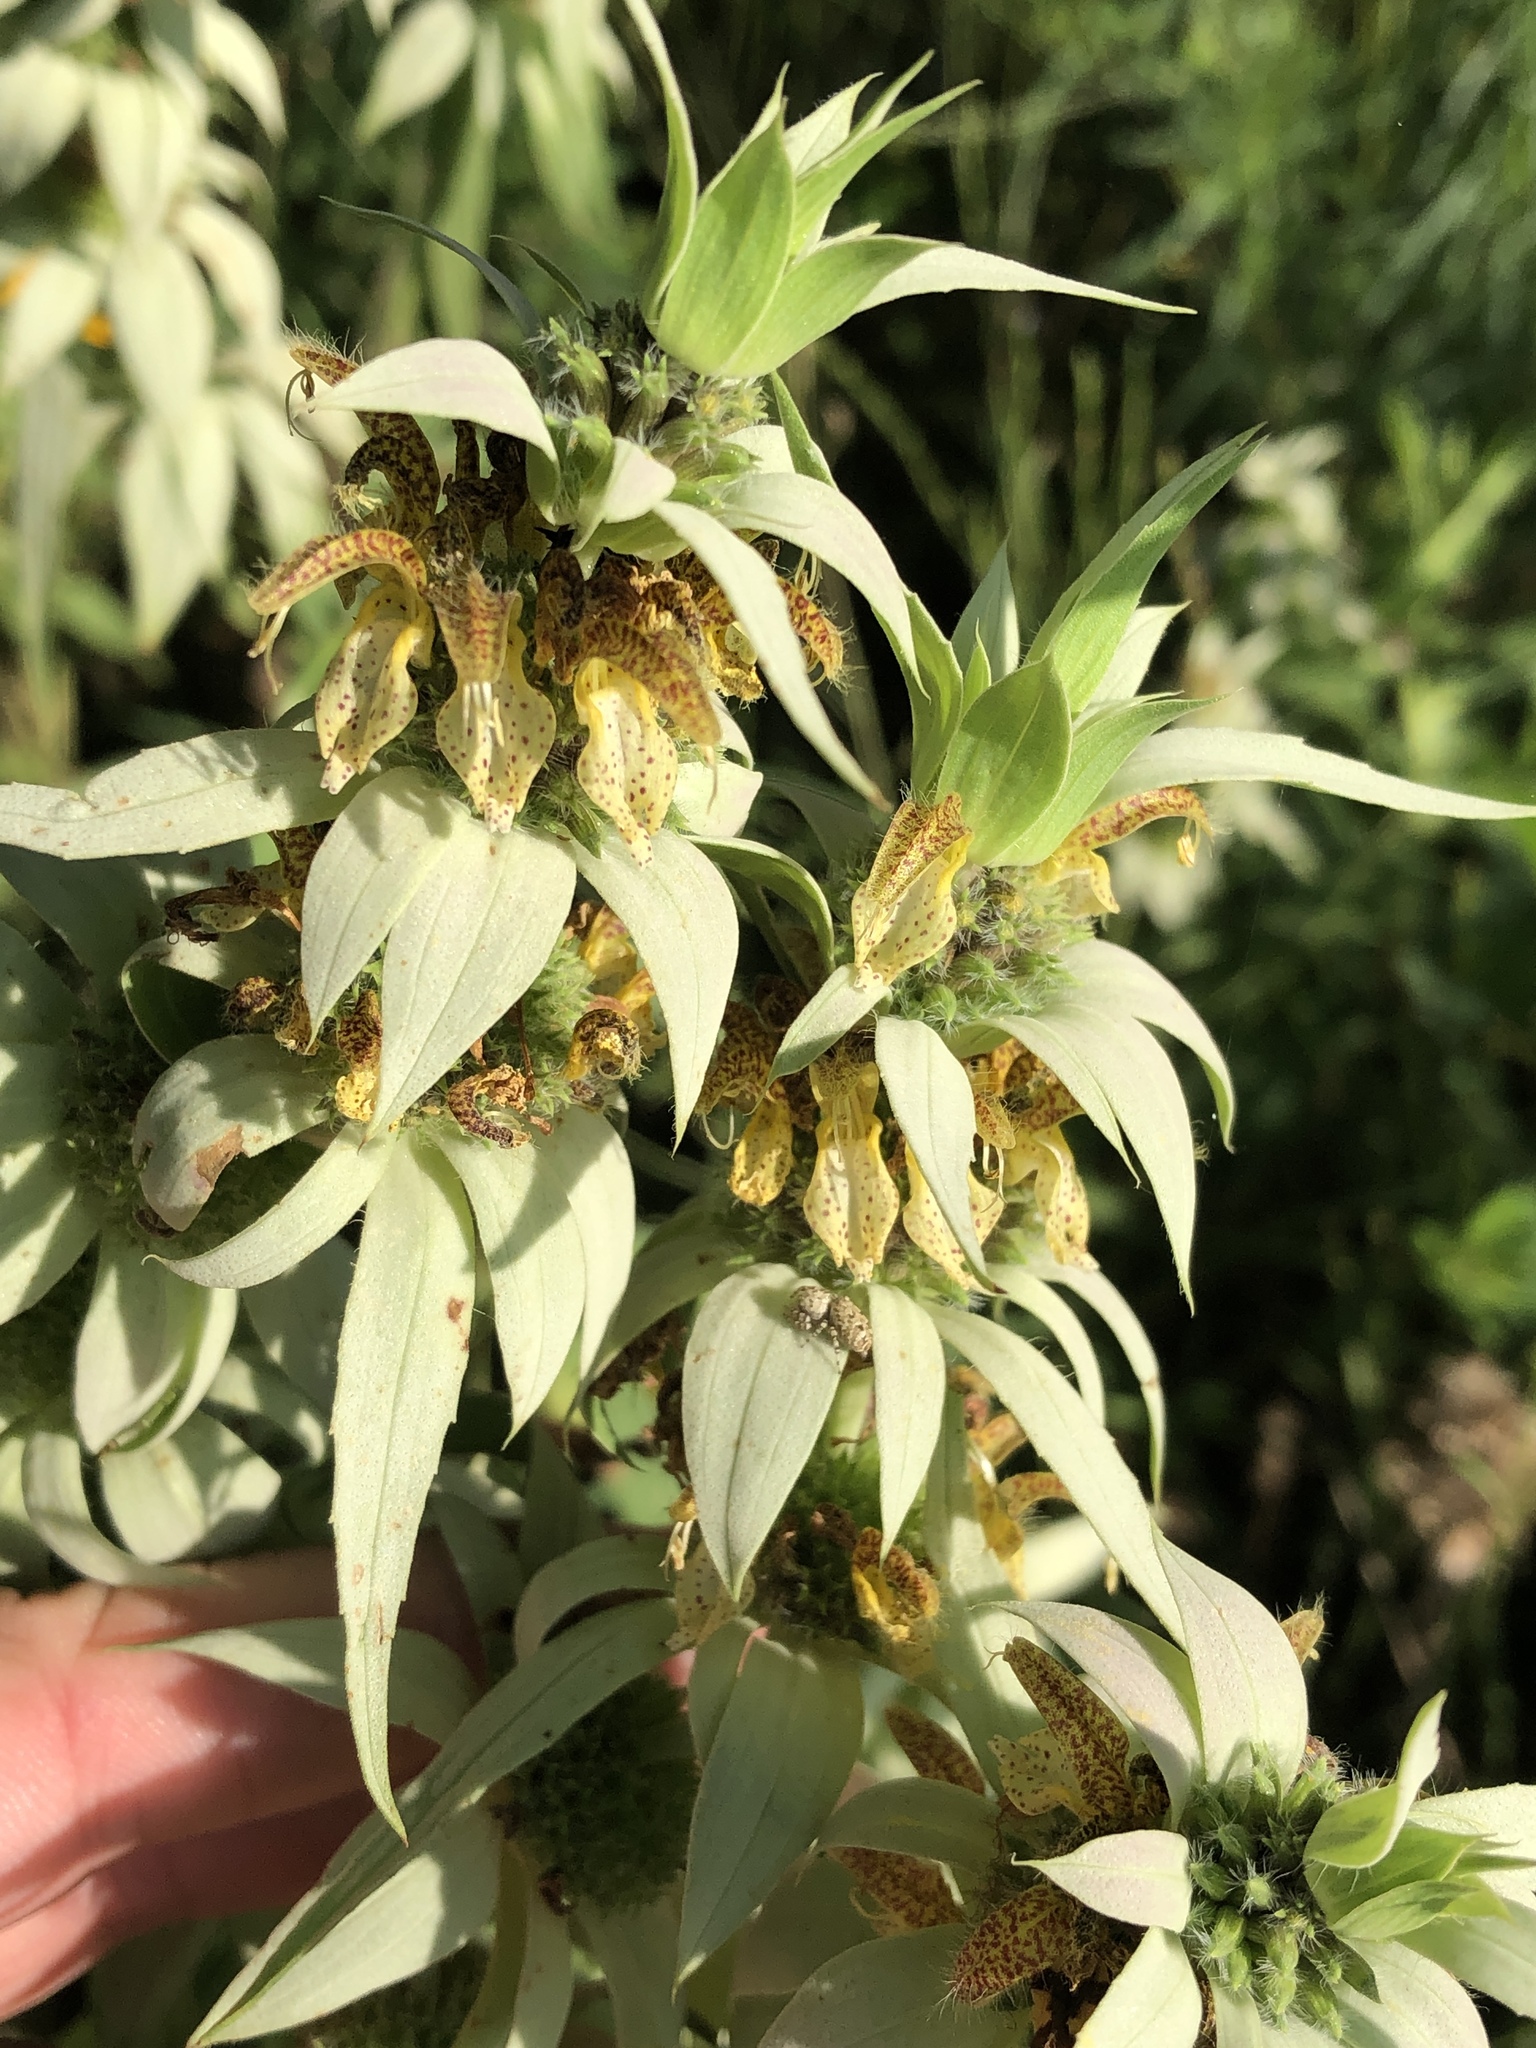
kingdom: Plantae
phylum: Tracheophyta
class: Magnoliopsida
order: Lamiales
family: Lamiaceae
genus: Monarda
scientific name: Monarda punctata
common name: Dotted monarda
